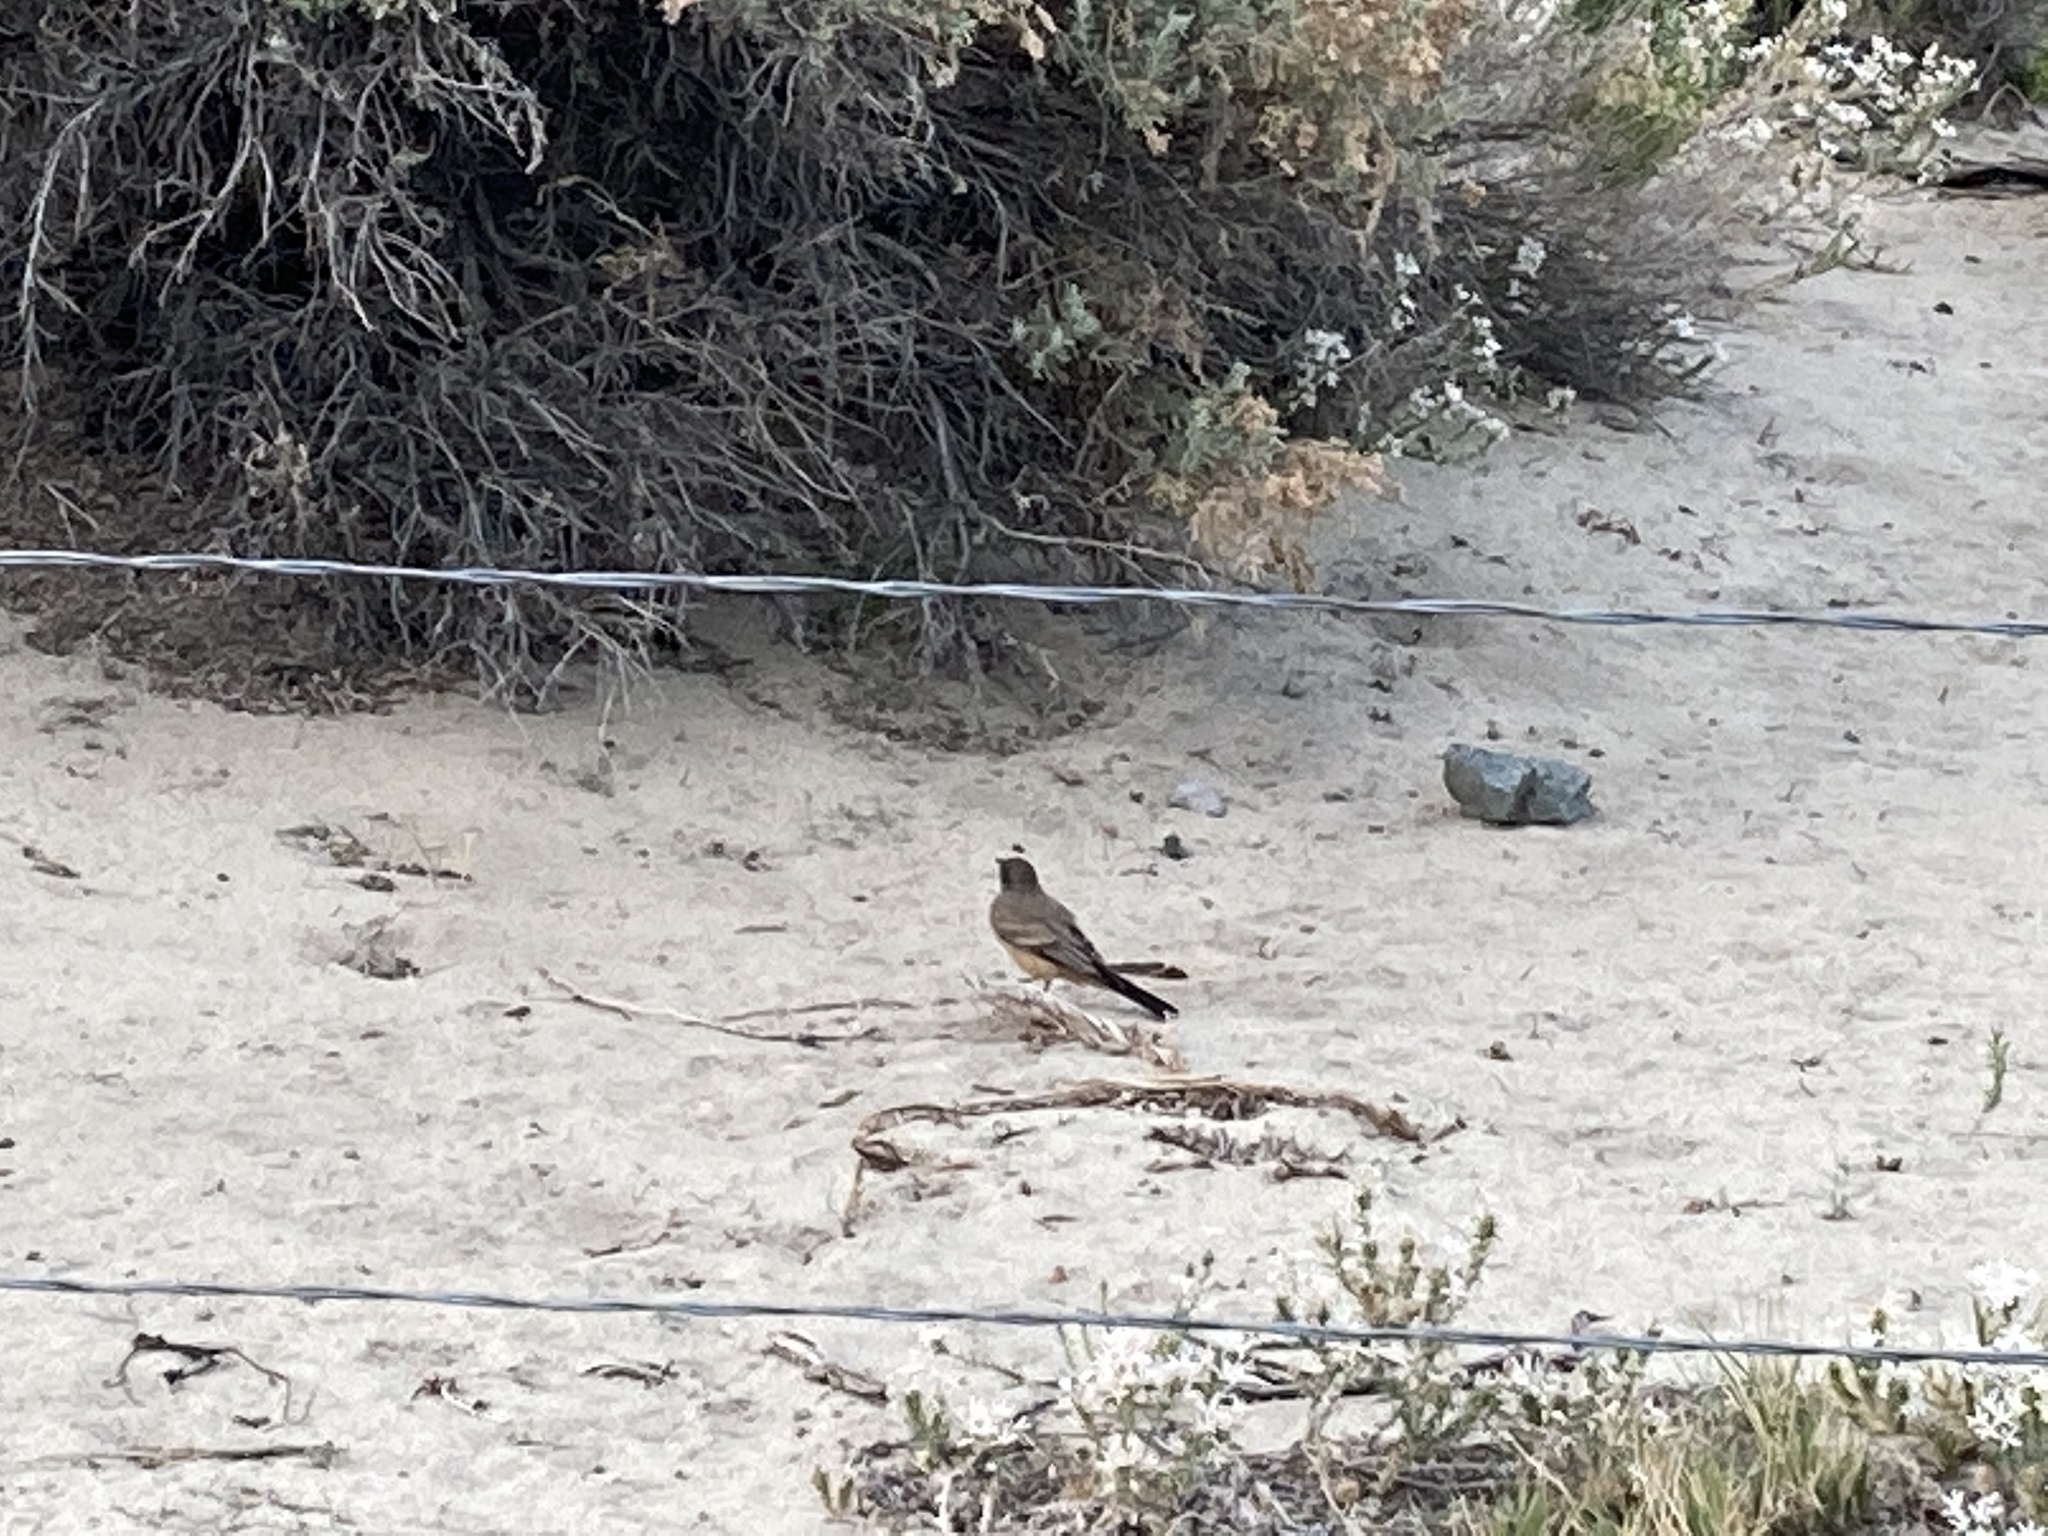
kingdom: Animalia
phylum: Chordata
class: Aves
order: Passeriformes
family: Tyrannidae
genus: Sayornis
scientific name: Sayornis saya
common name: Say's phoebe
